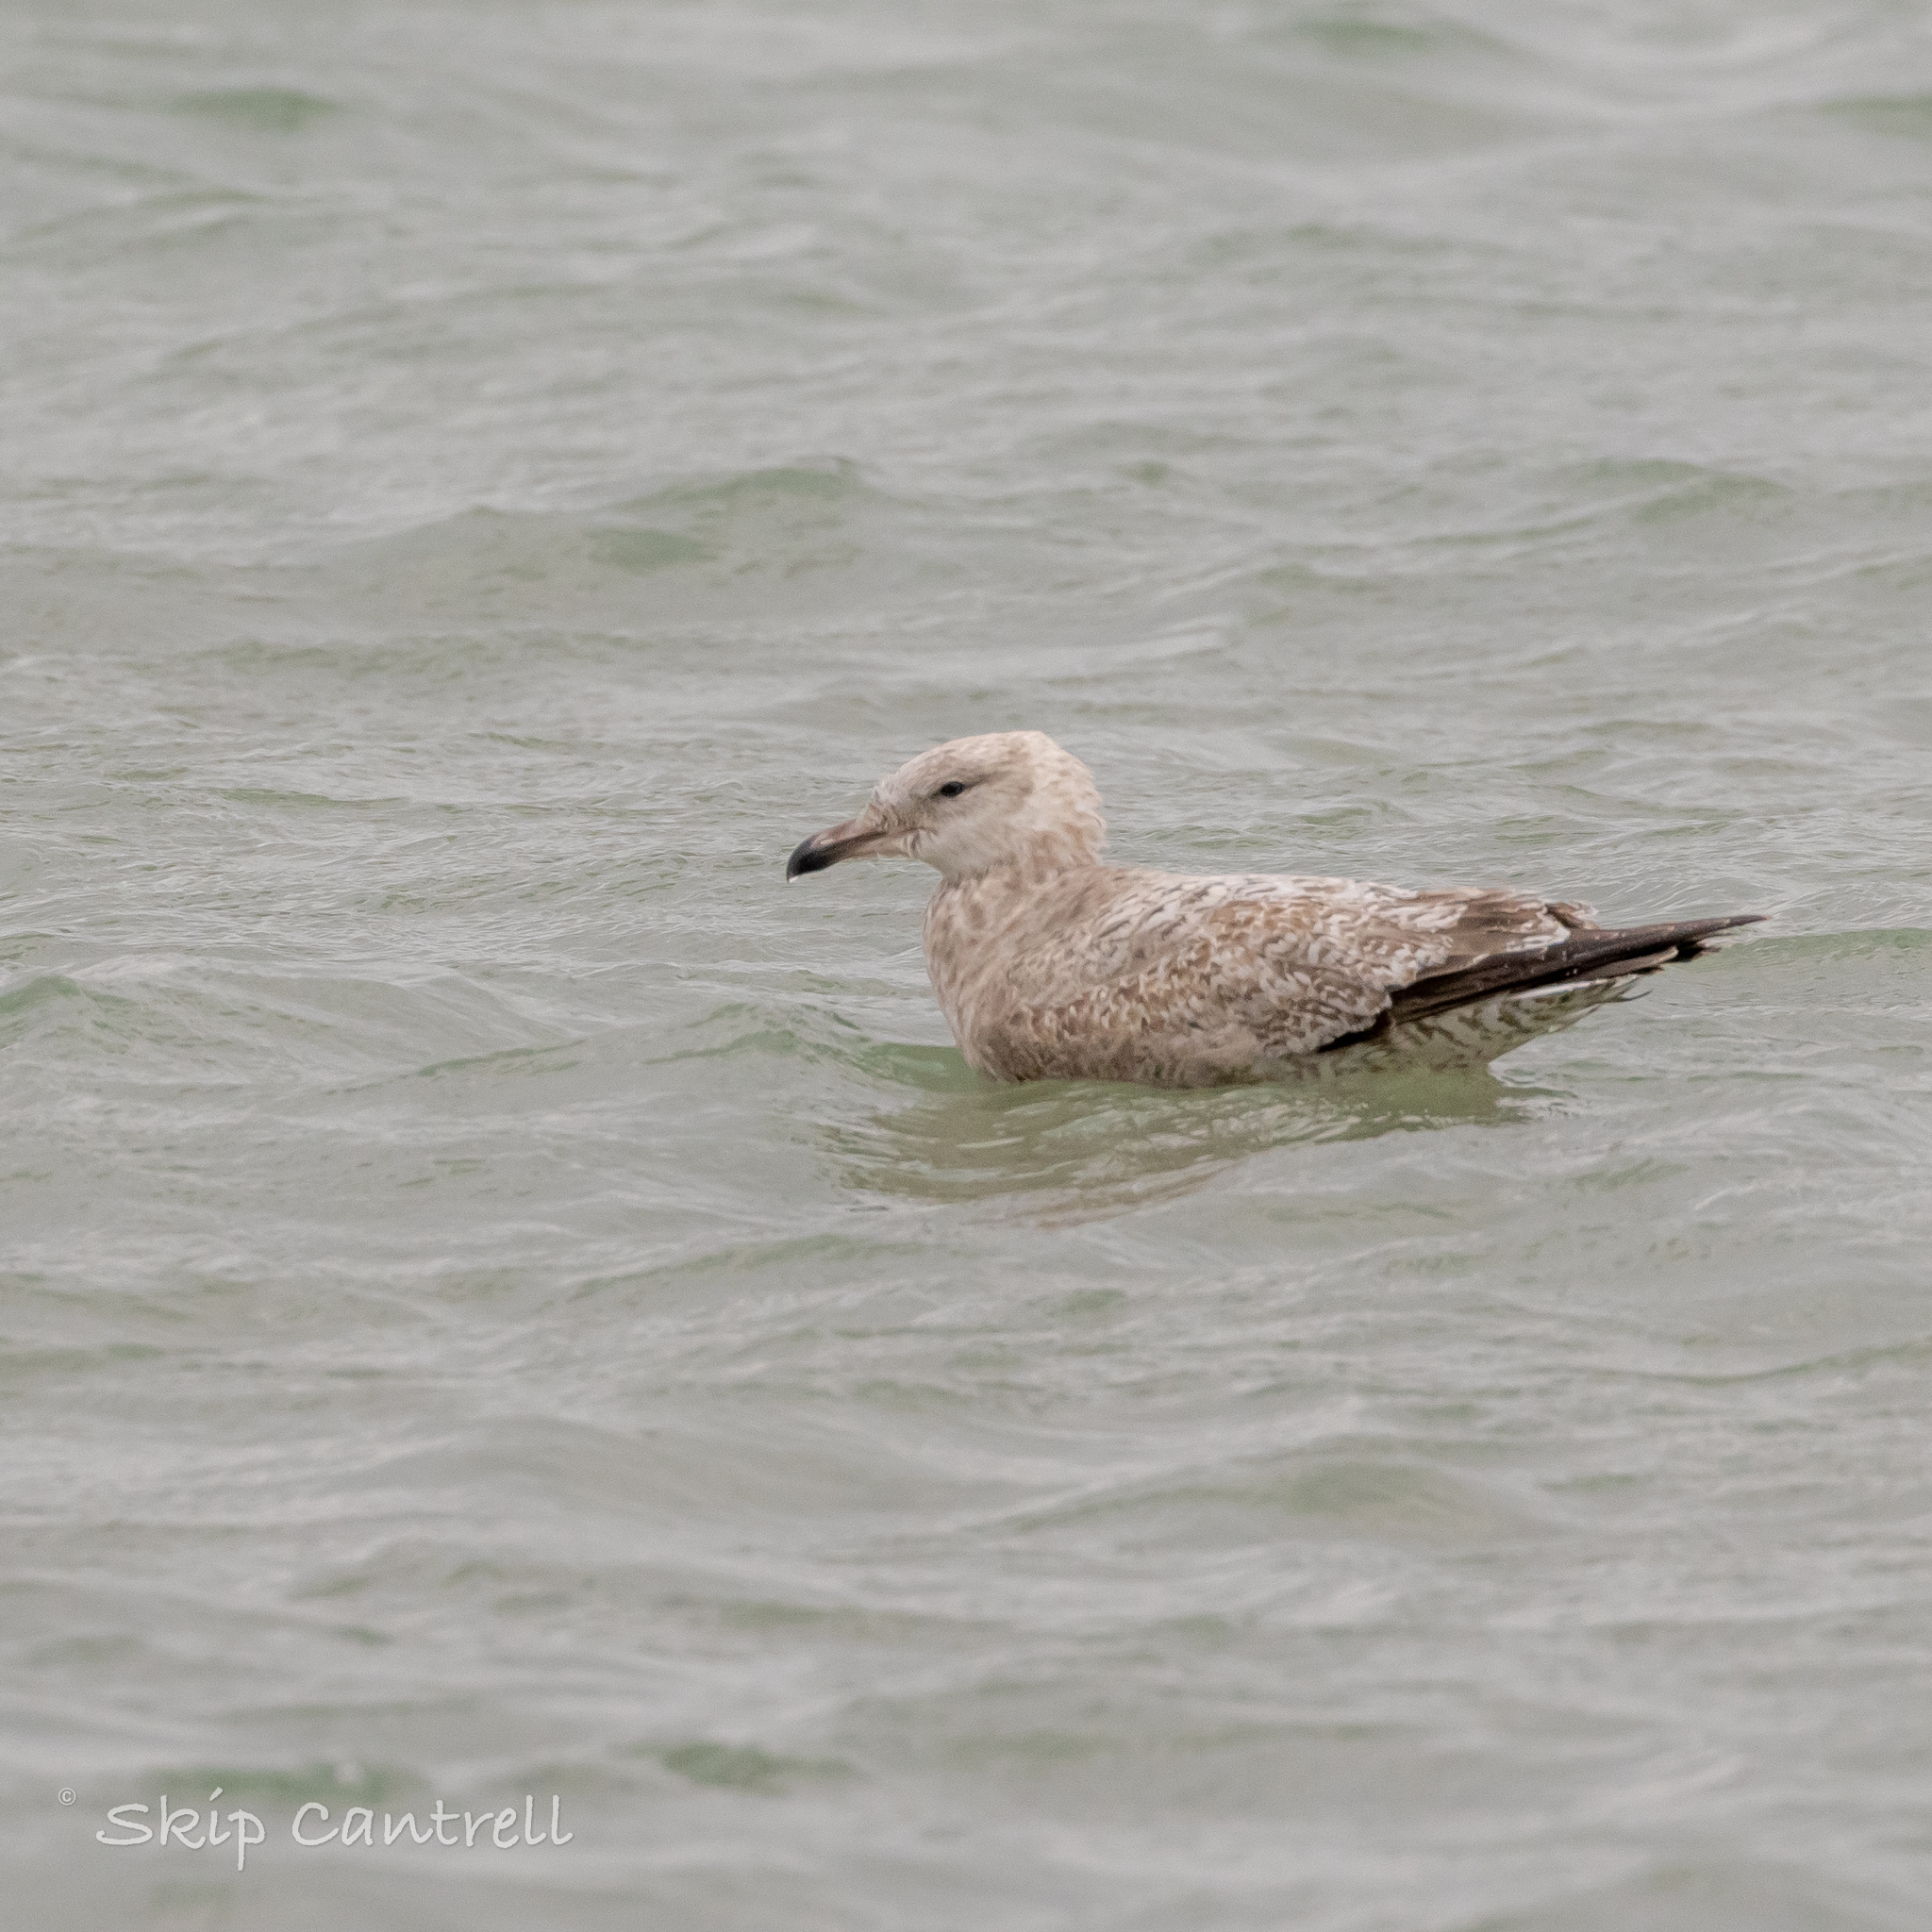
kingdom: Animalia
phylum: Chordata
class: Aves
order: Charadriiformes
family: Laridae
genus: Larus
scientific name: Larus argentatus
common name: Herring gull
